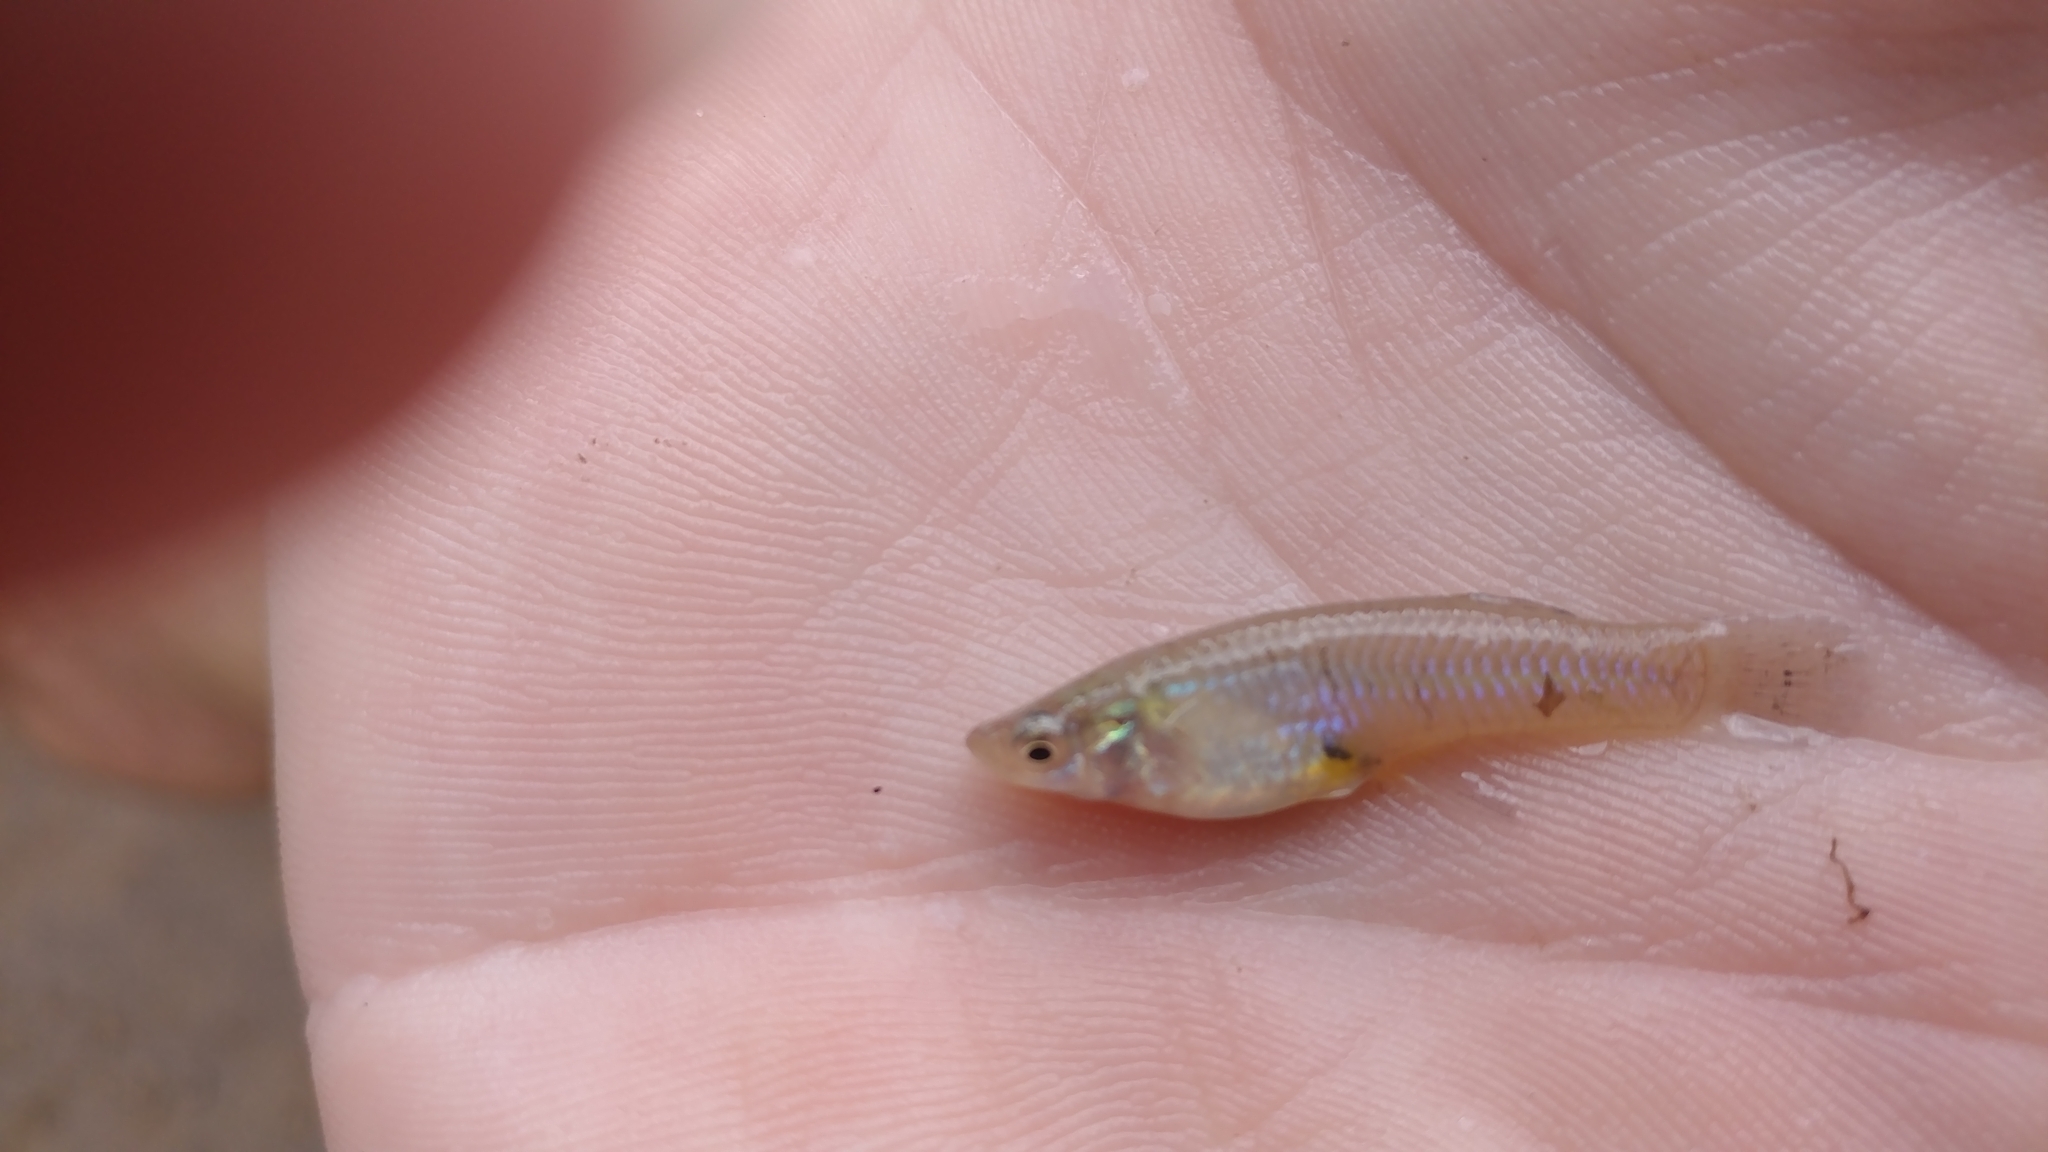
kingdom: Animalia
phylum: Chordata
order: Cyprinodontiformes
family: Poeciliidae
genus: Gambusia
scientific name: Gambusia affinis
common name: Mosquitofish
